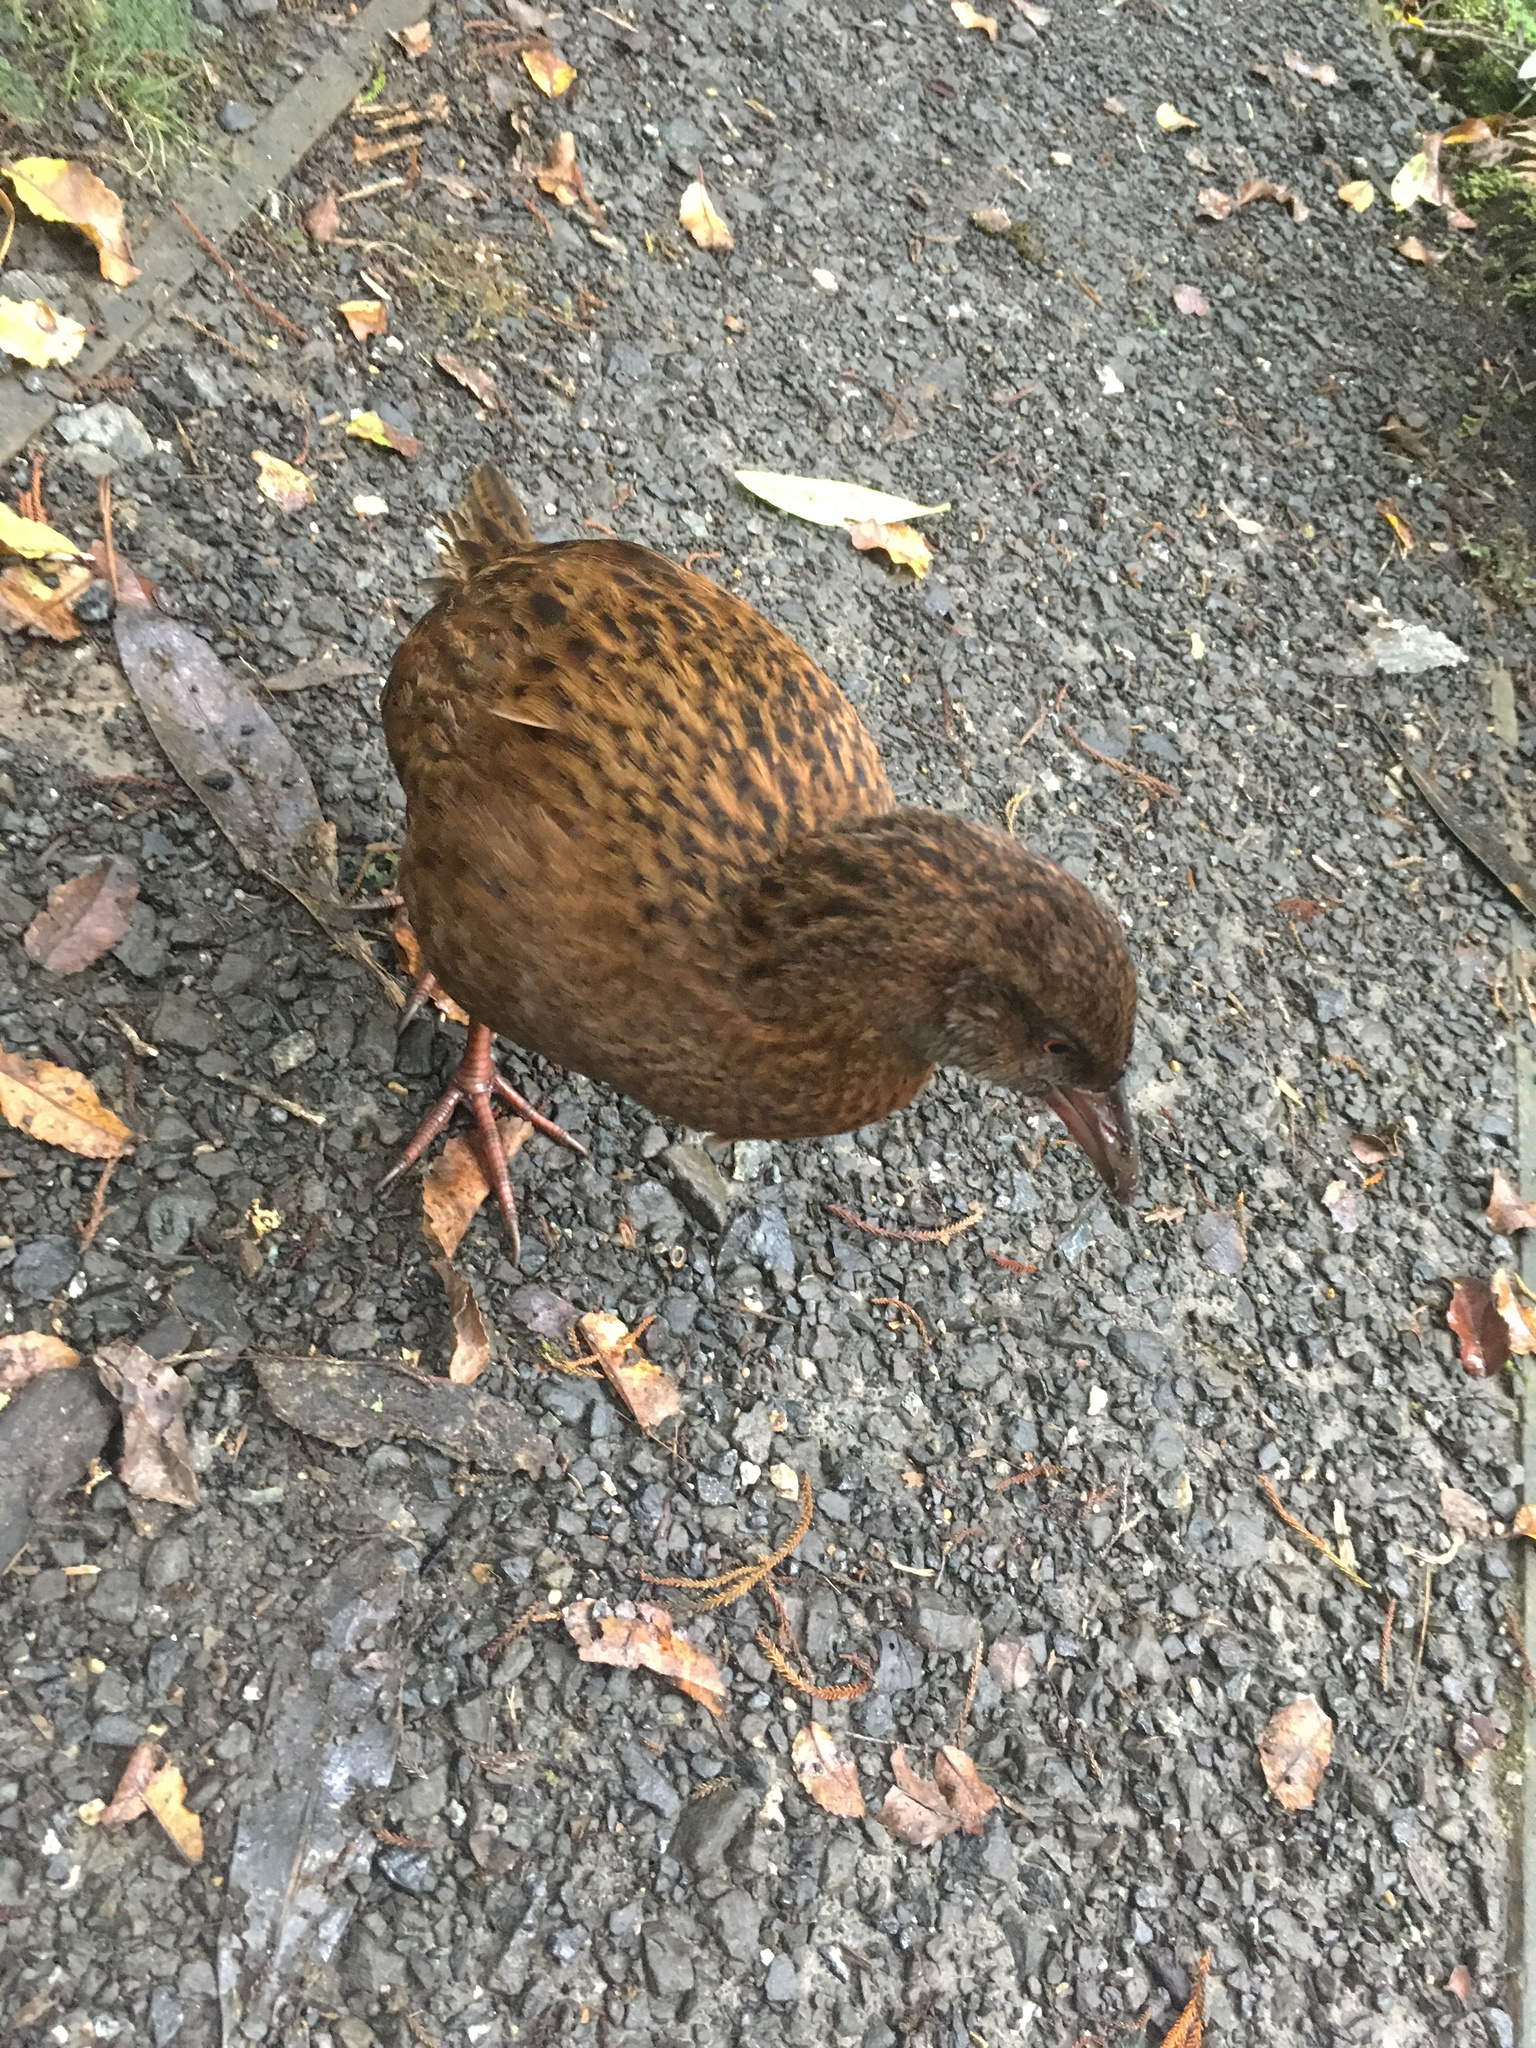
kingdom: Animalia
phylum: Chordata
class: Aves
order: Gruiformes
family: Rallidae
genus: Gallirallus
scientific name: Gallirallus australis
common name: Weka
